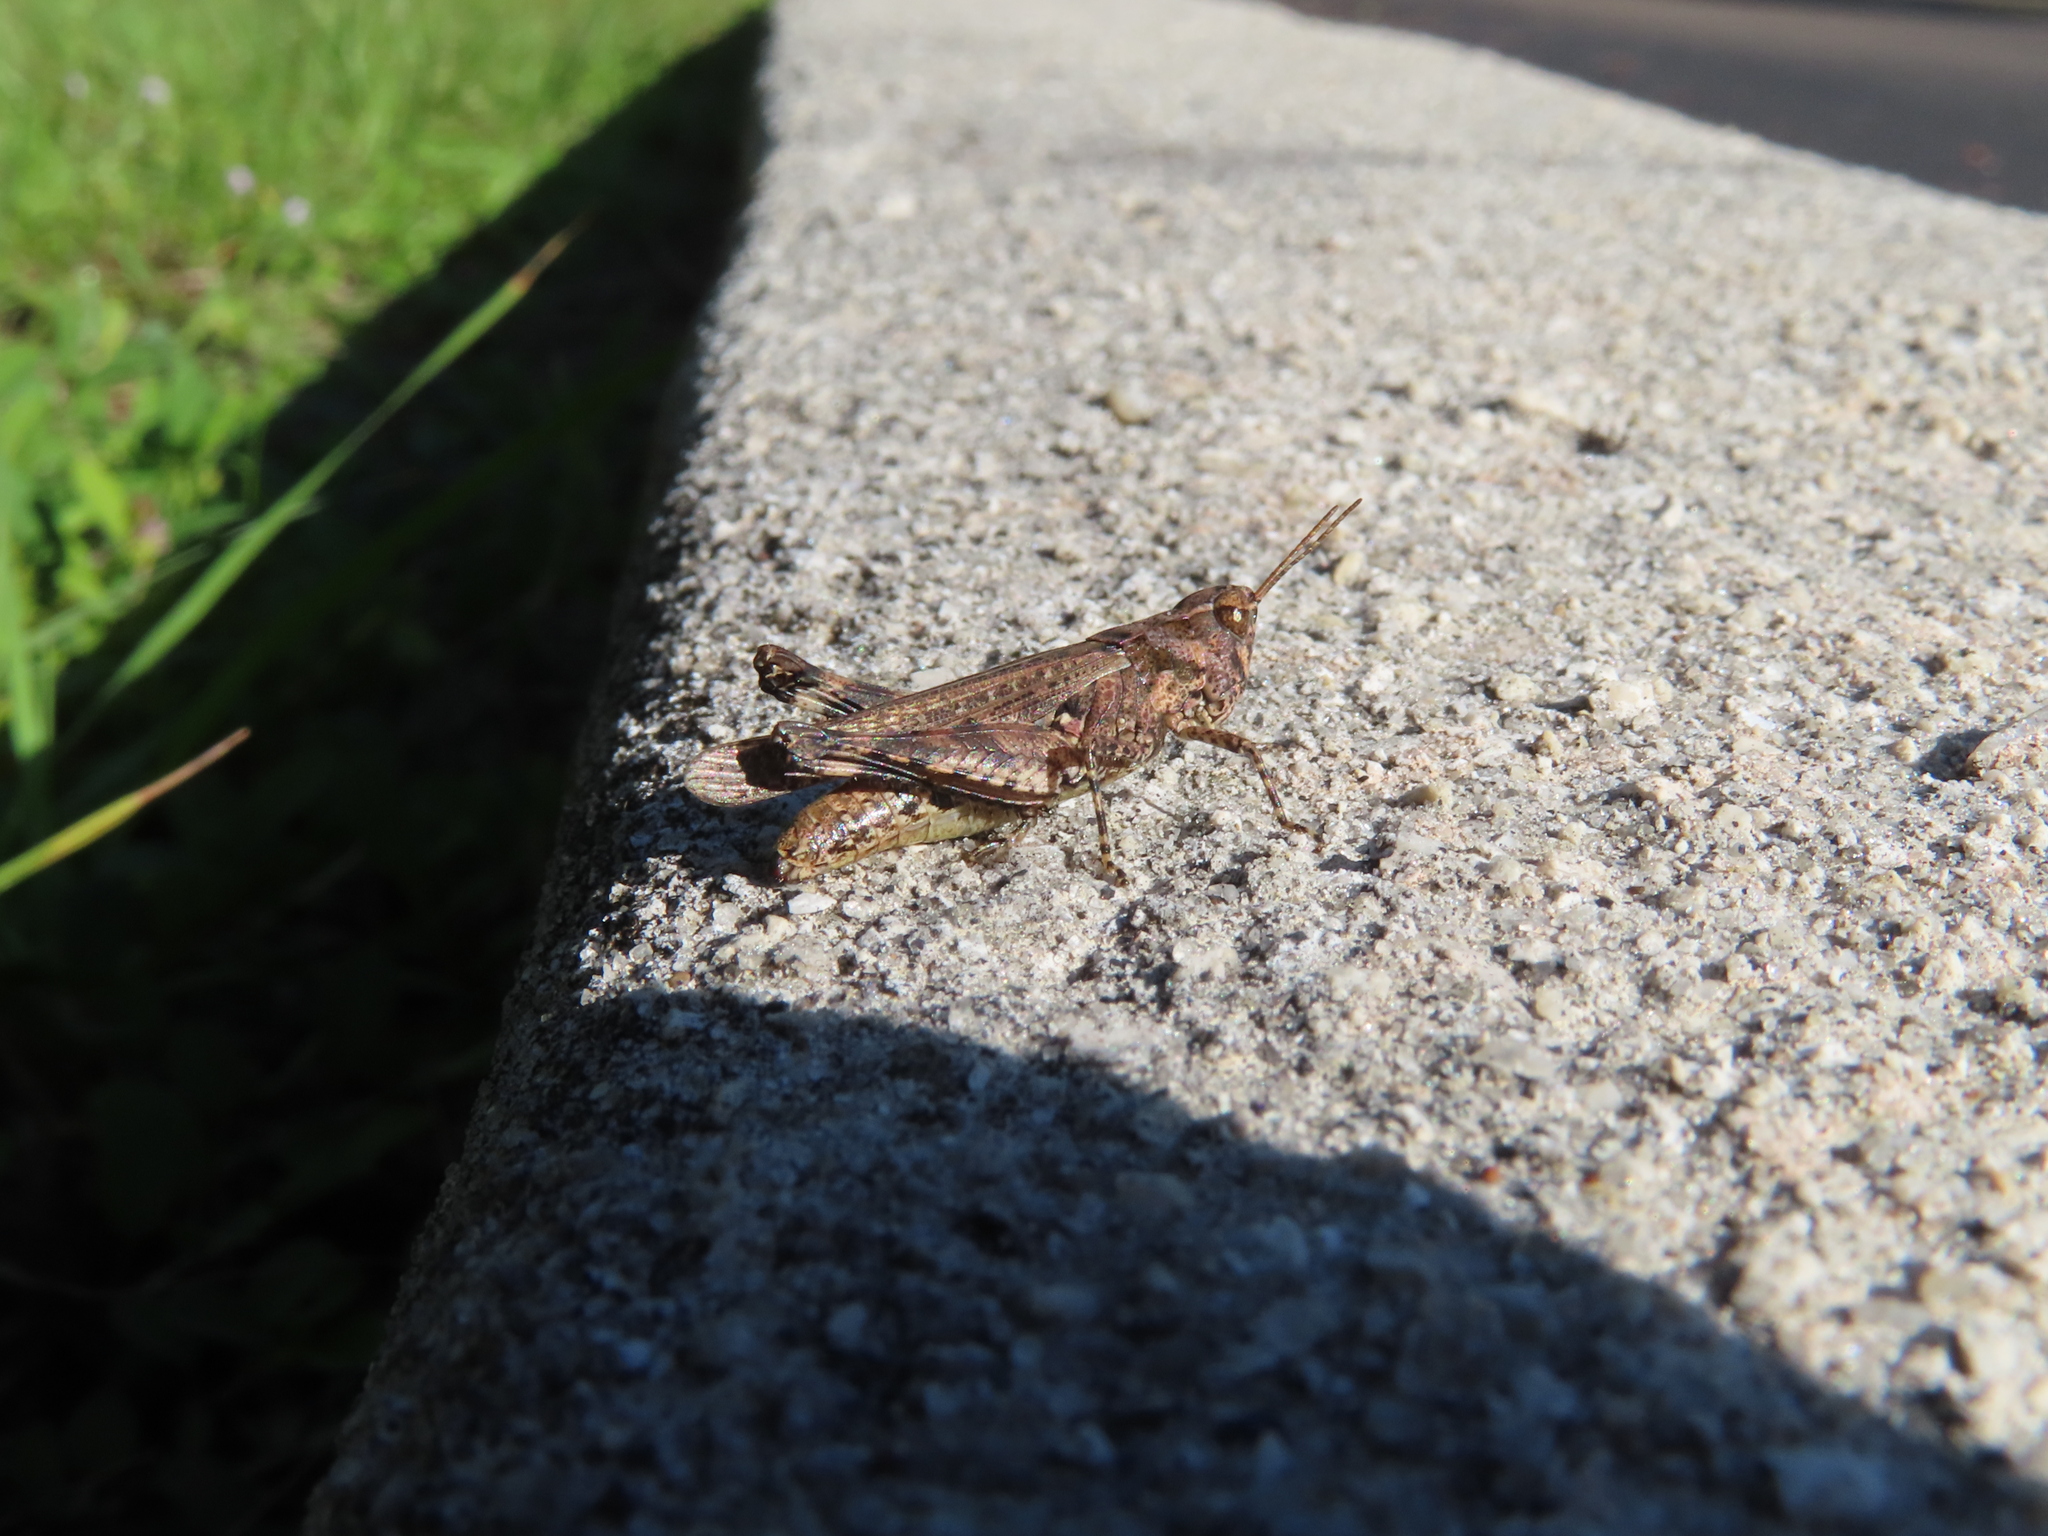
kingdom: Animalia
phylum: Arthropoda
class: Insecta
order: Orthoptera
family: Acrididae
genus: Orphulella
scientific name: Orphulella punctata
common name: Slant-faced grasshopper
